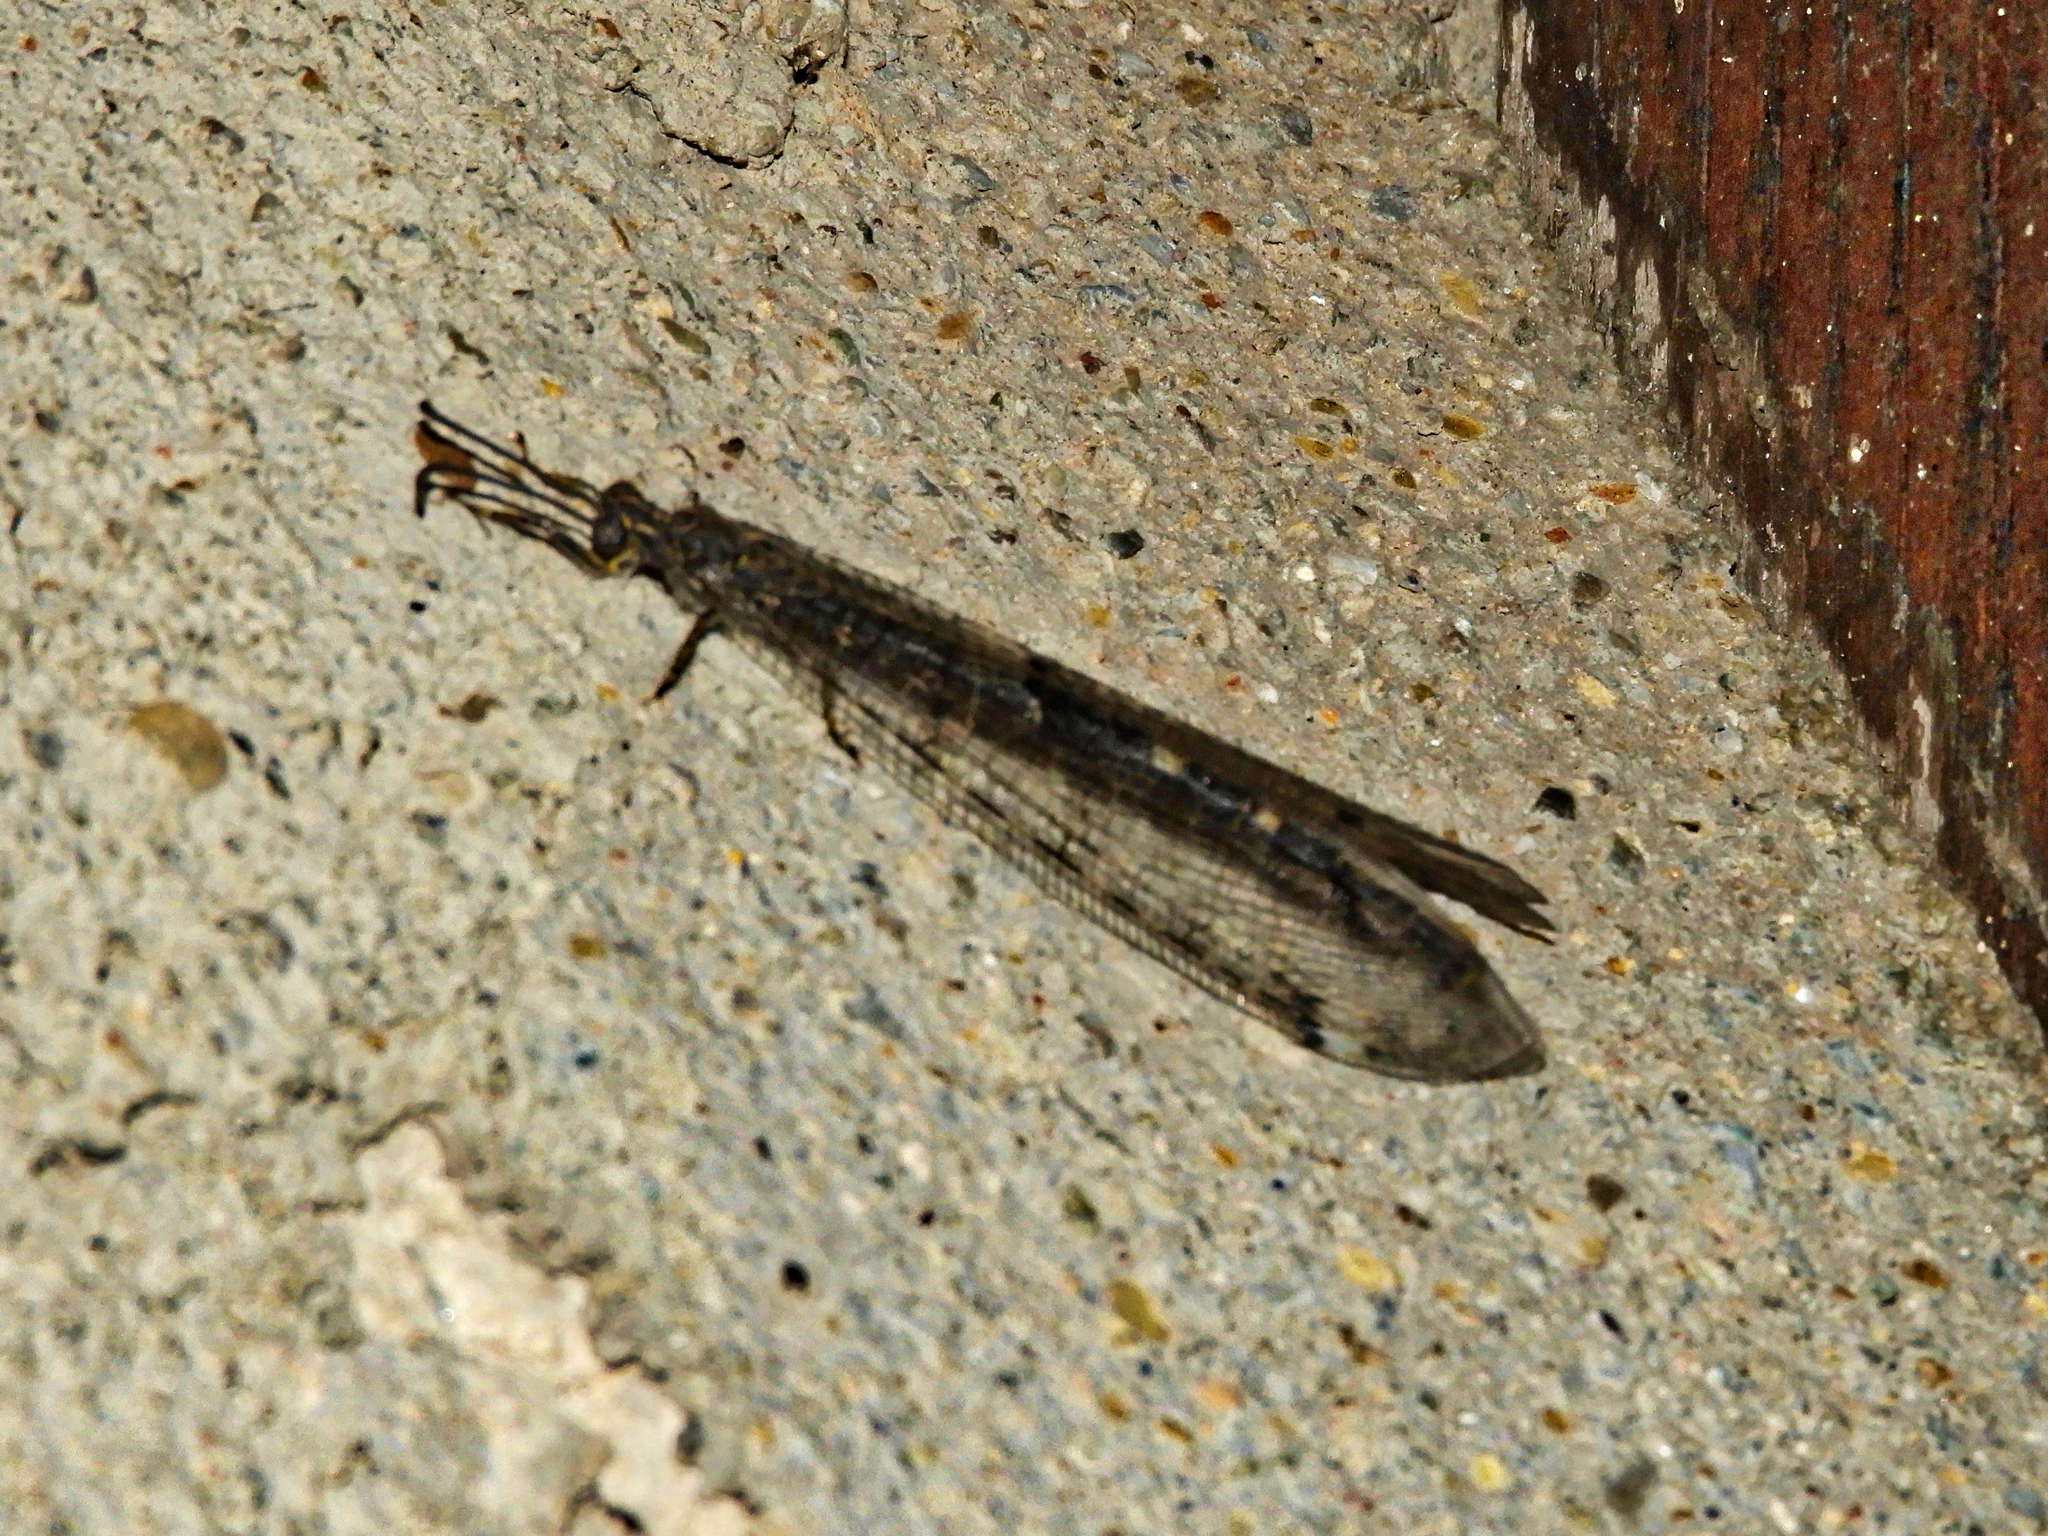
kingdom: Animalia
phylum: Arthropoda
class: Insecta
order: Neuroptera
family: Myrmeleontidae
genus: Distoleon
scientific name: Distoleon tetragrammicus
